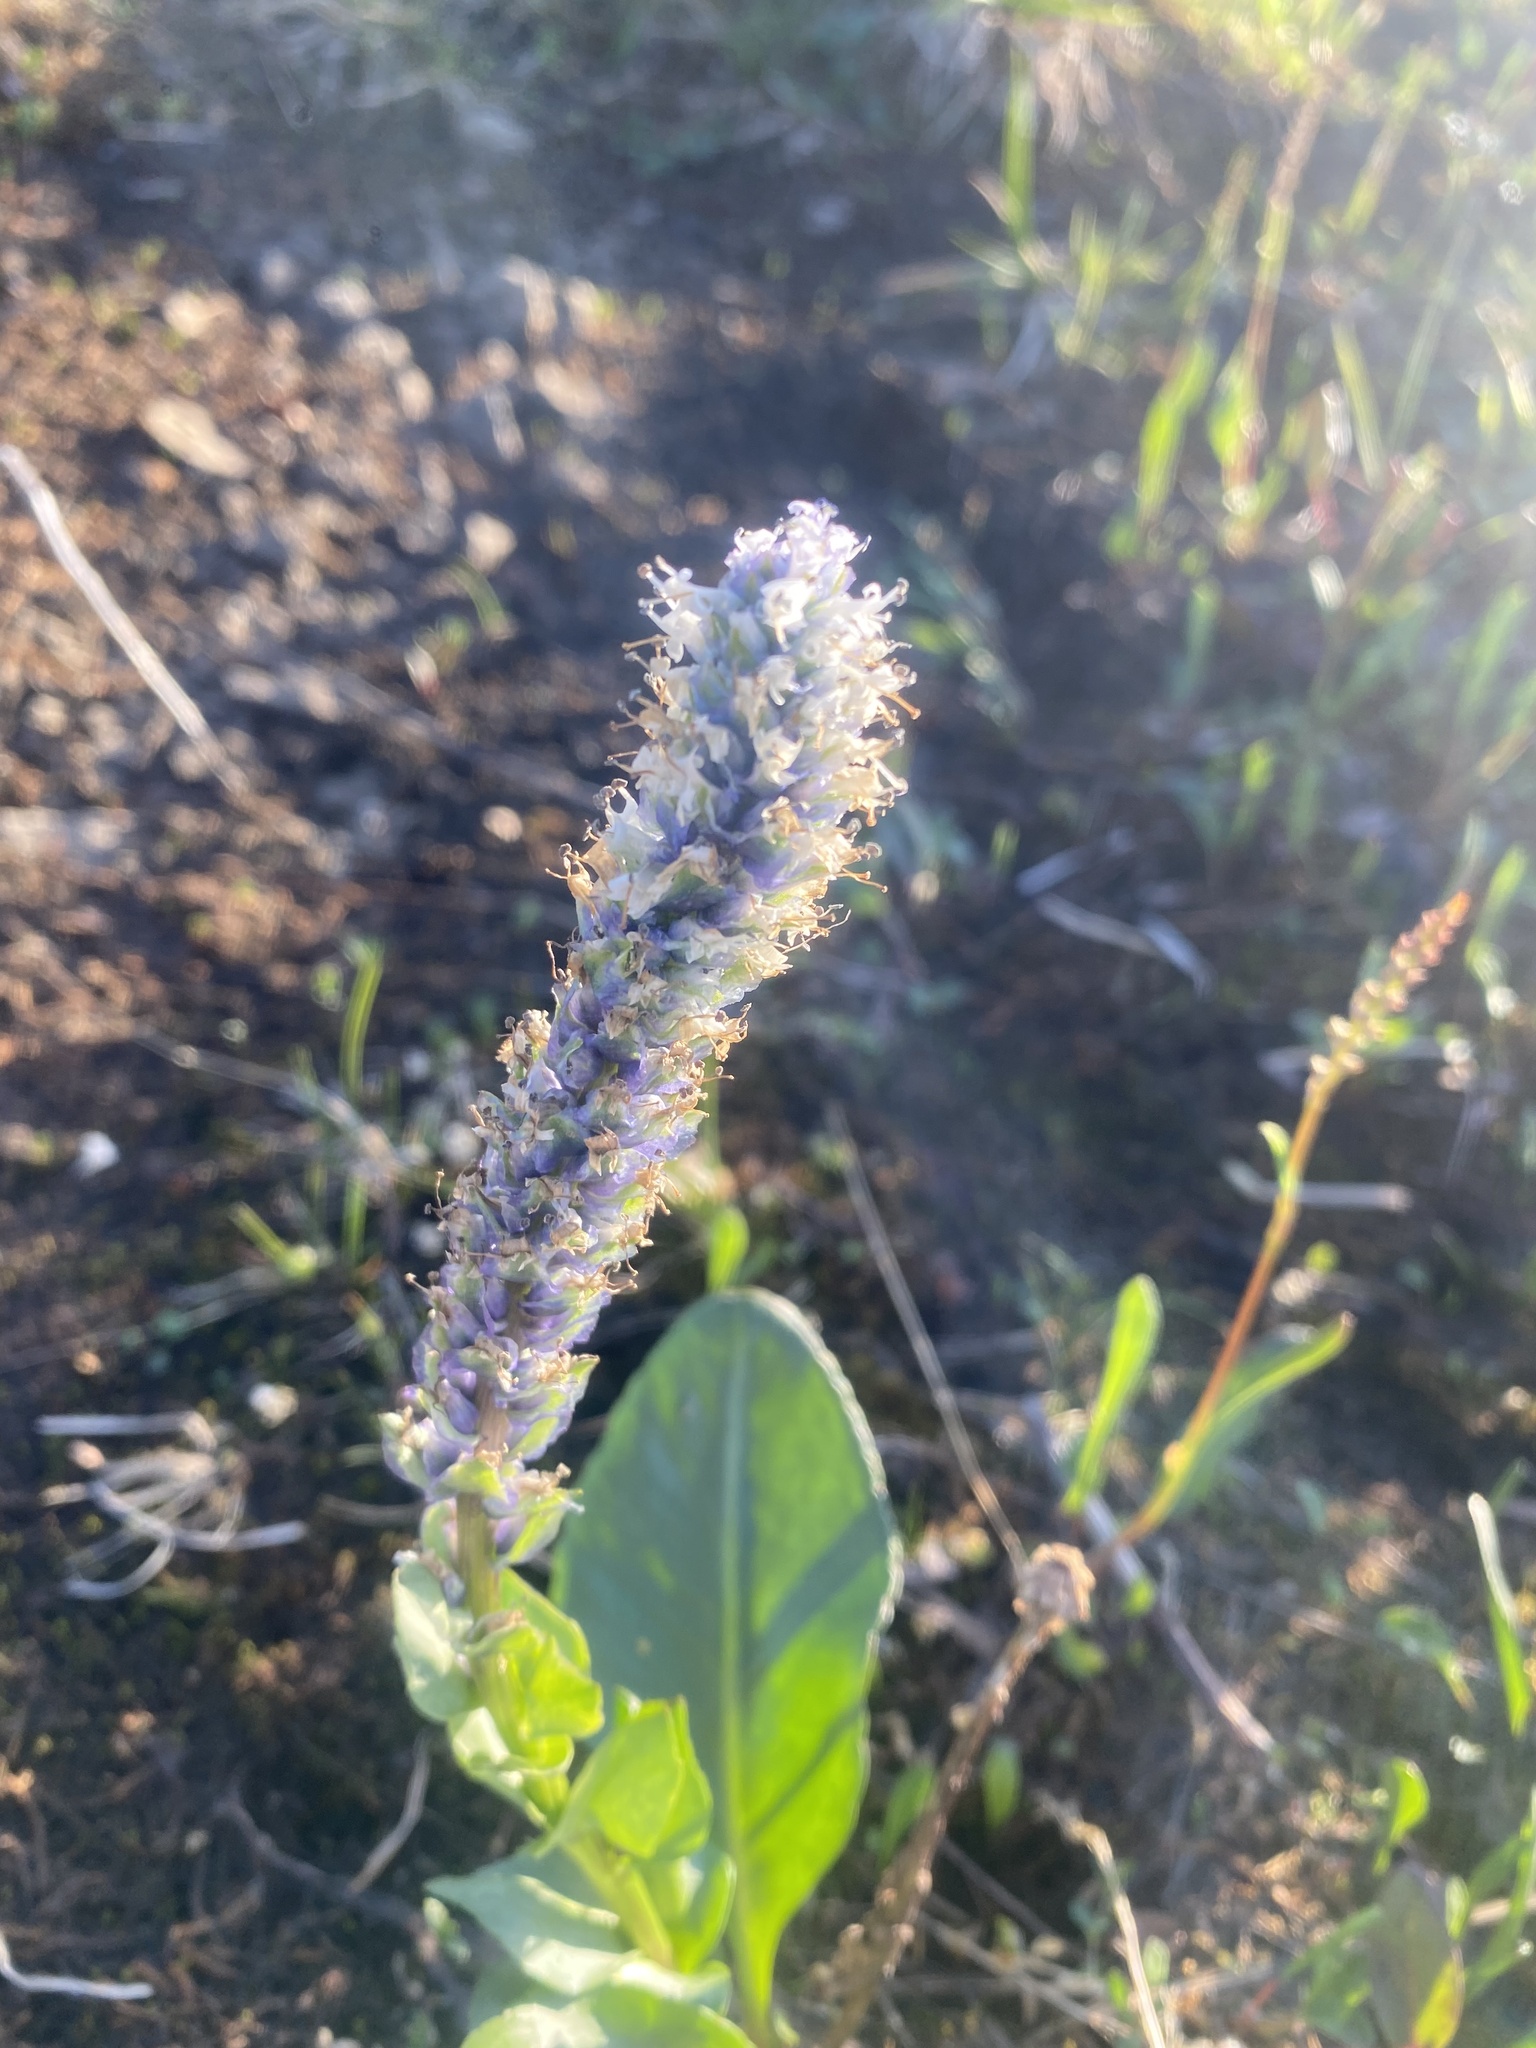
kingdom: Plantae
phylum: Tracheophyta
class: Magnoliopsida
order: Lamiales
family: Plantaginaceae
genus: Lagotis
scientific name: Lagotis glauca
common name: Glaucous weaselsnout
